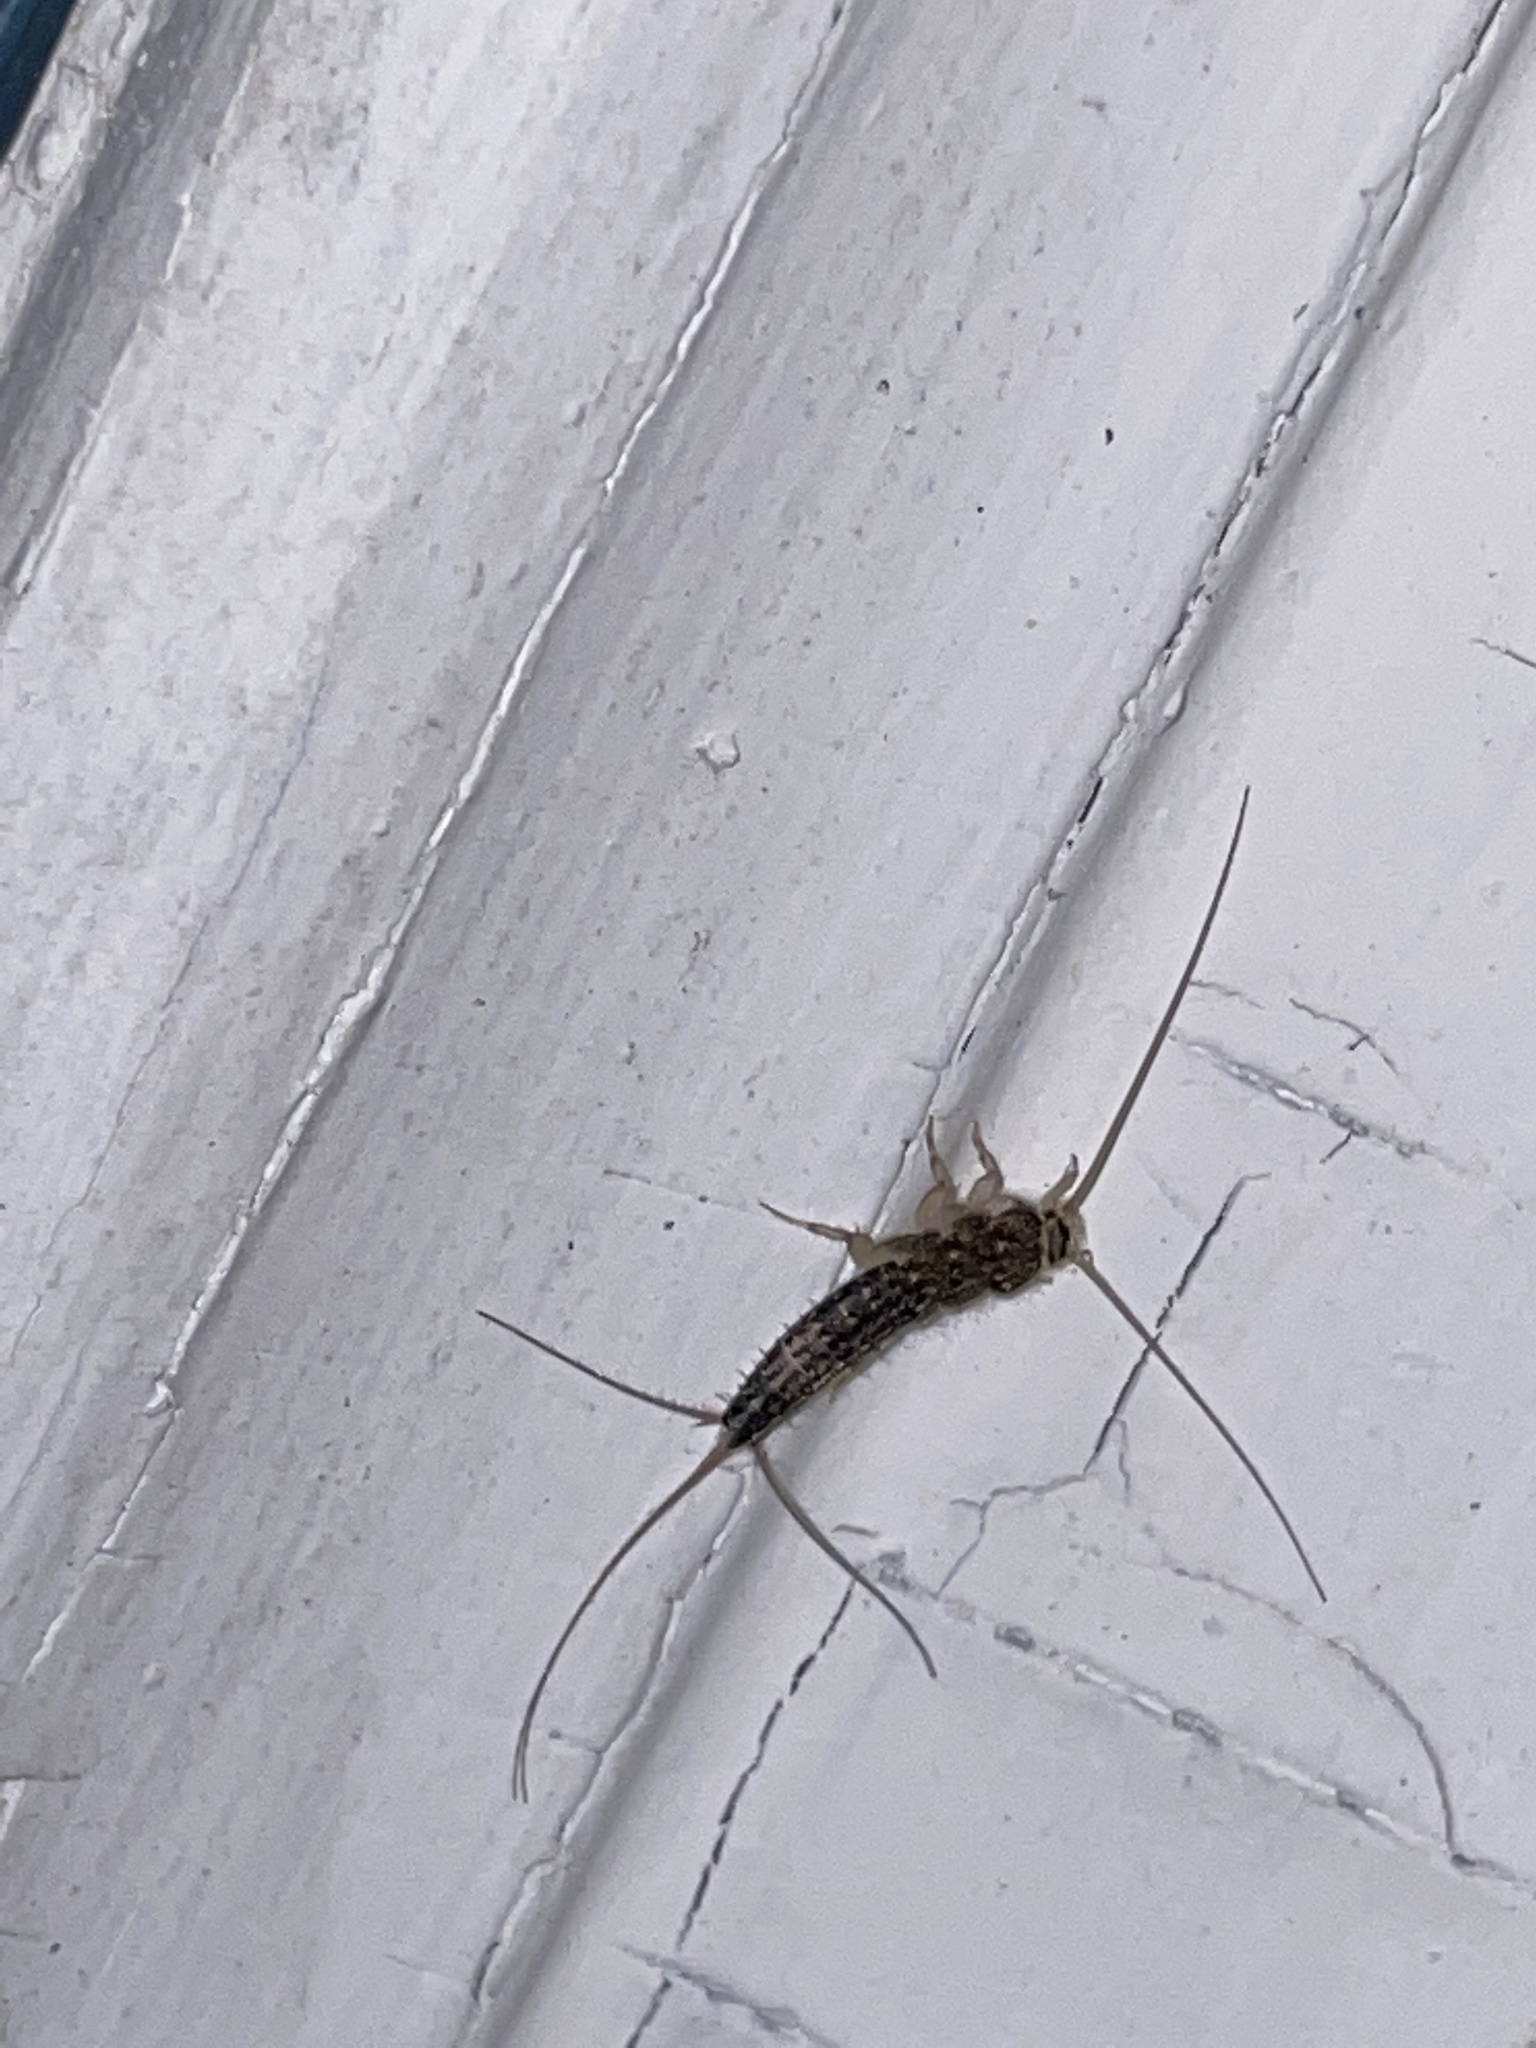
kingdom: Animalia
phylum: Arthropoda
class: Insecta
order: Zygentoma
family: Lepismatidae
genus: Ctenolepisma
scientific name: Ctenolepisma lineata
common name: Four-lined silverfish
